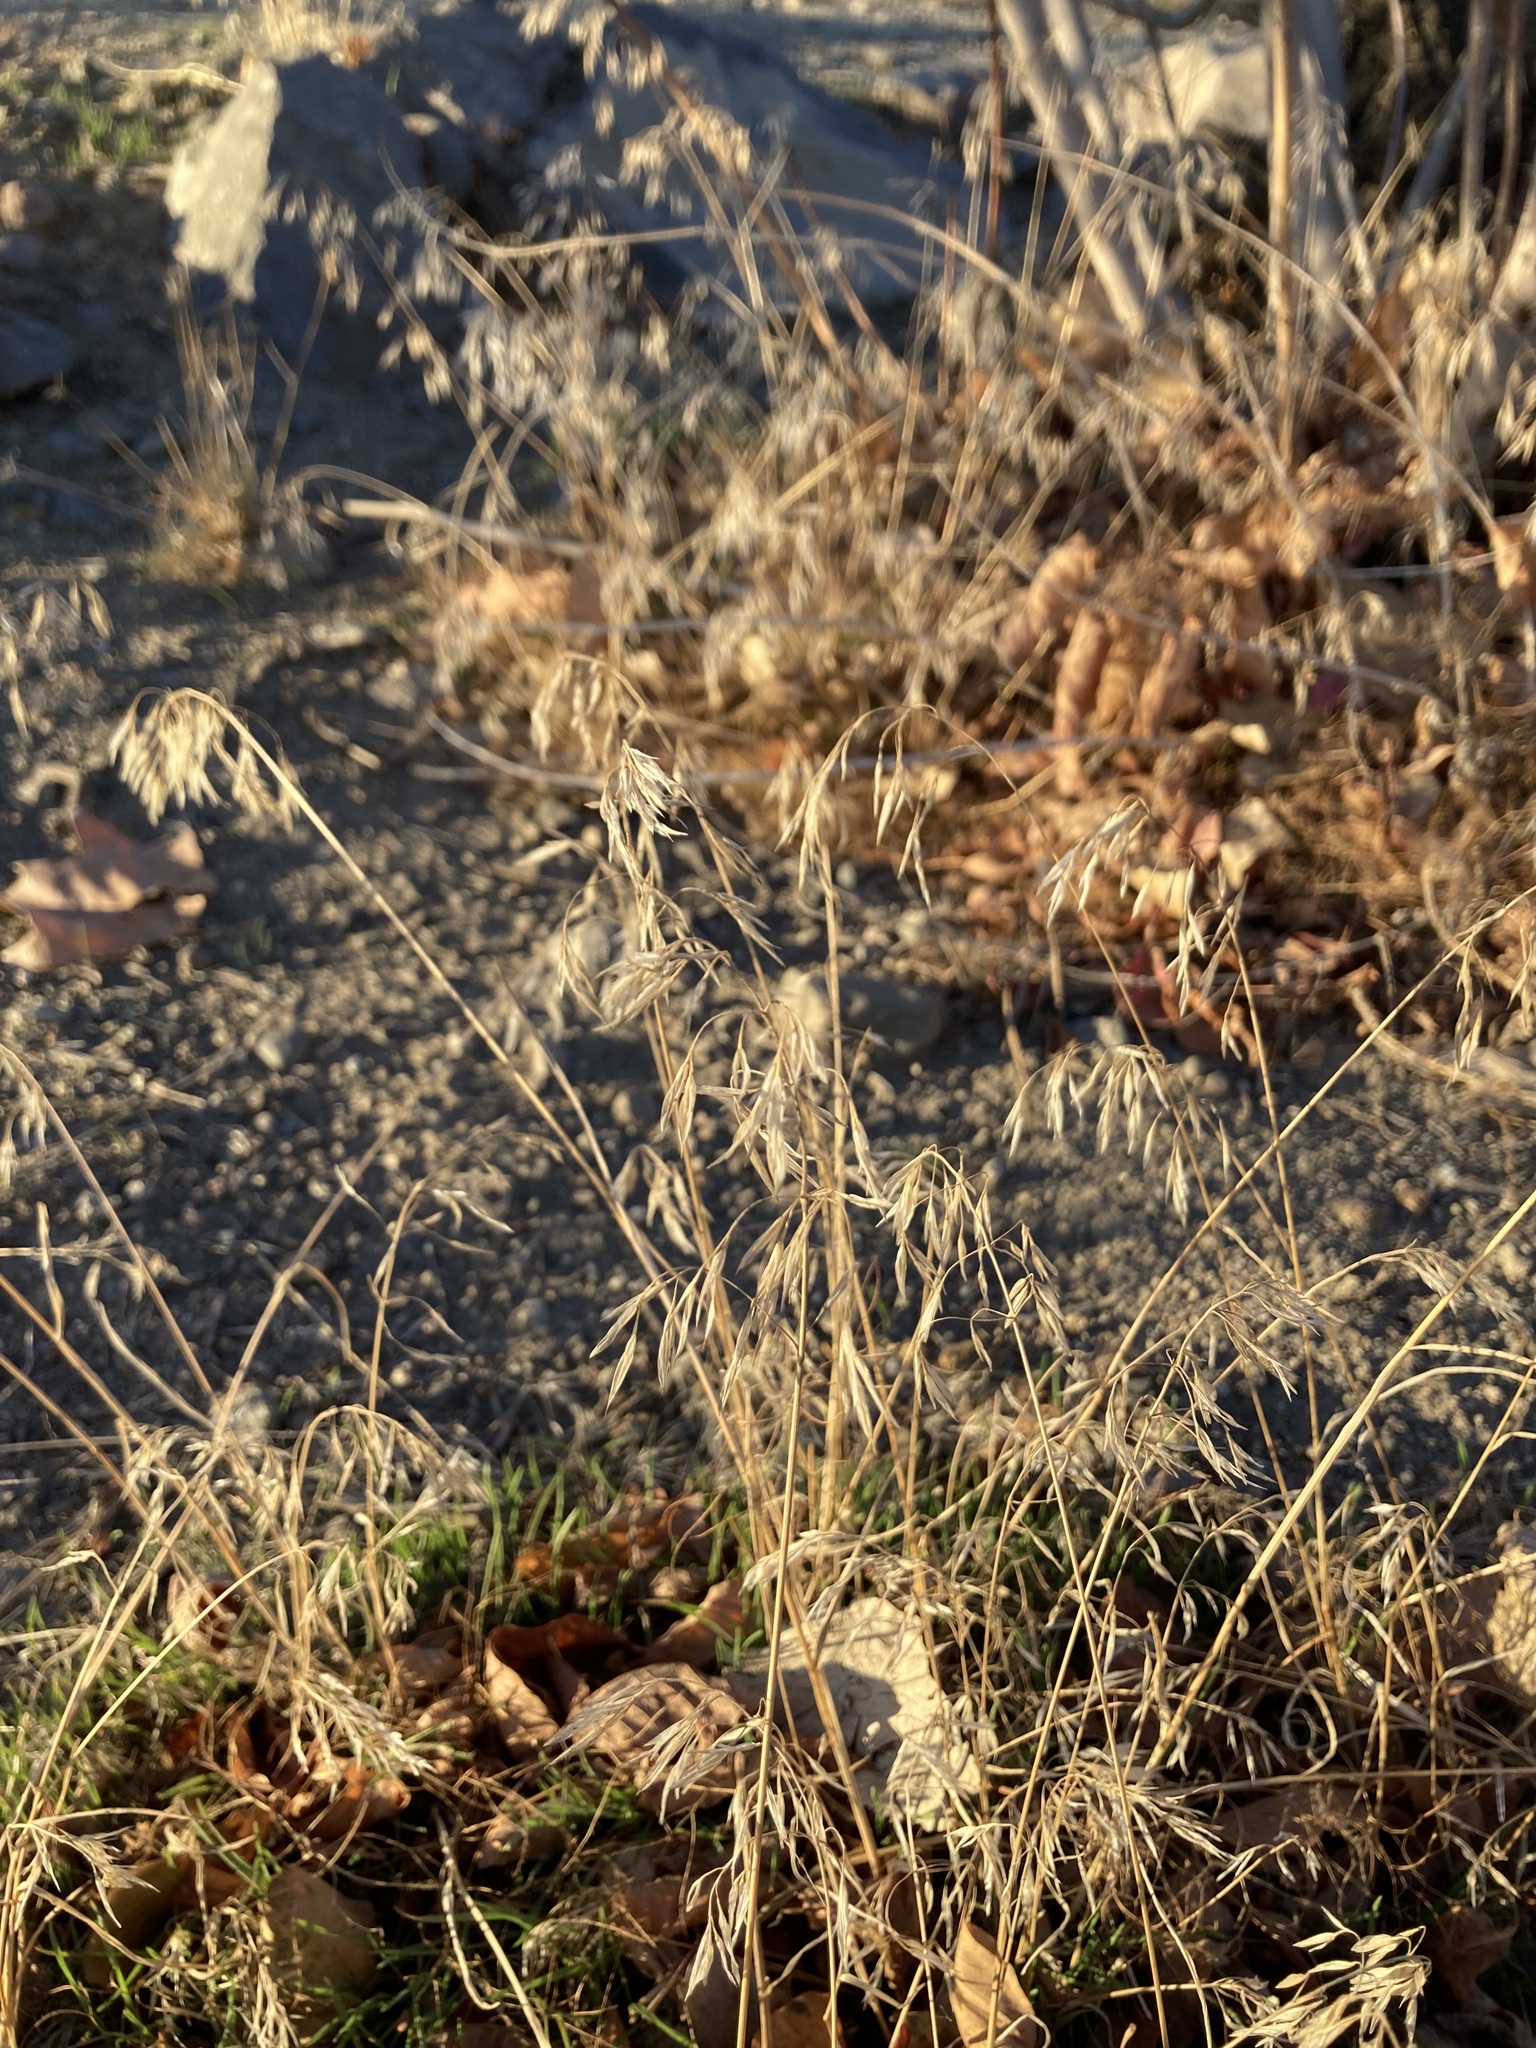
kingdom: Plantae
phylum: Tracheophyta
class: Liliopsida
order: Poales
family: Poaceae
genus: Bromus
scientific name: Bromus tectorum
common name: Cheatgrass
